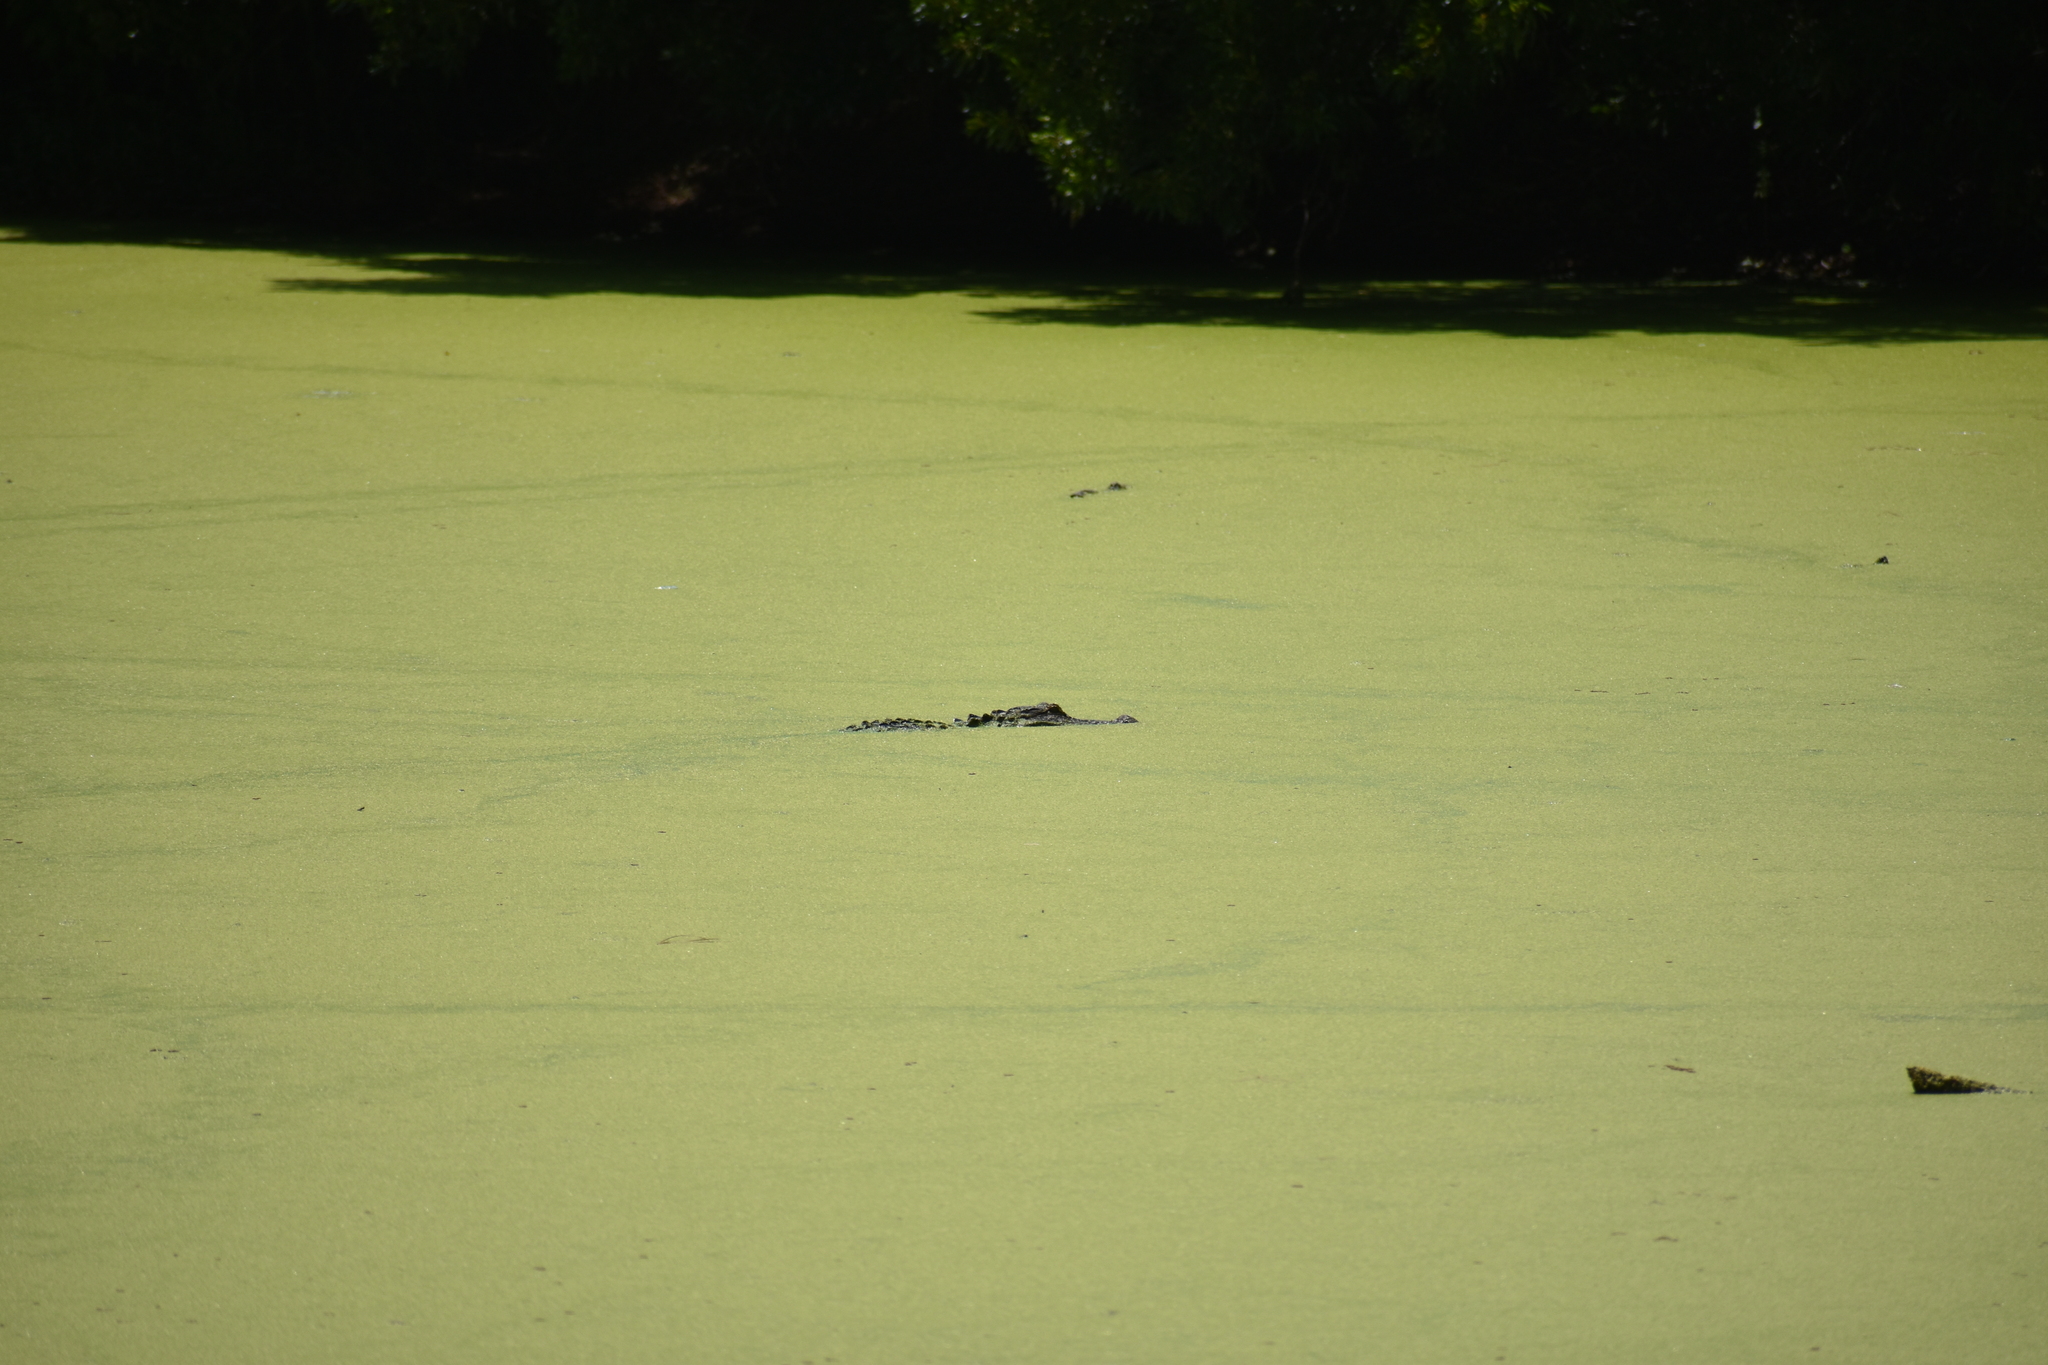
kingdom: Animalia
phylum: Chordata
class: Crocodylia
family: Alligatoridae
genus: Alligator
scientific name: Alligator mississippiensis
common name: American alligator
